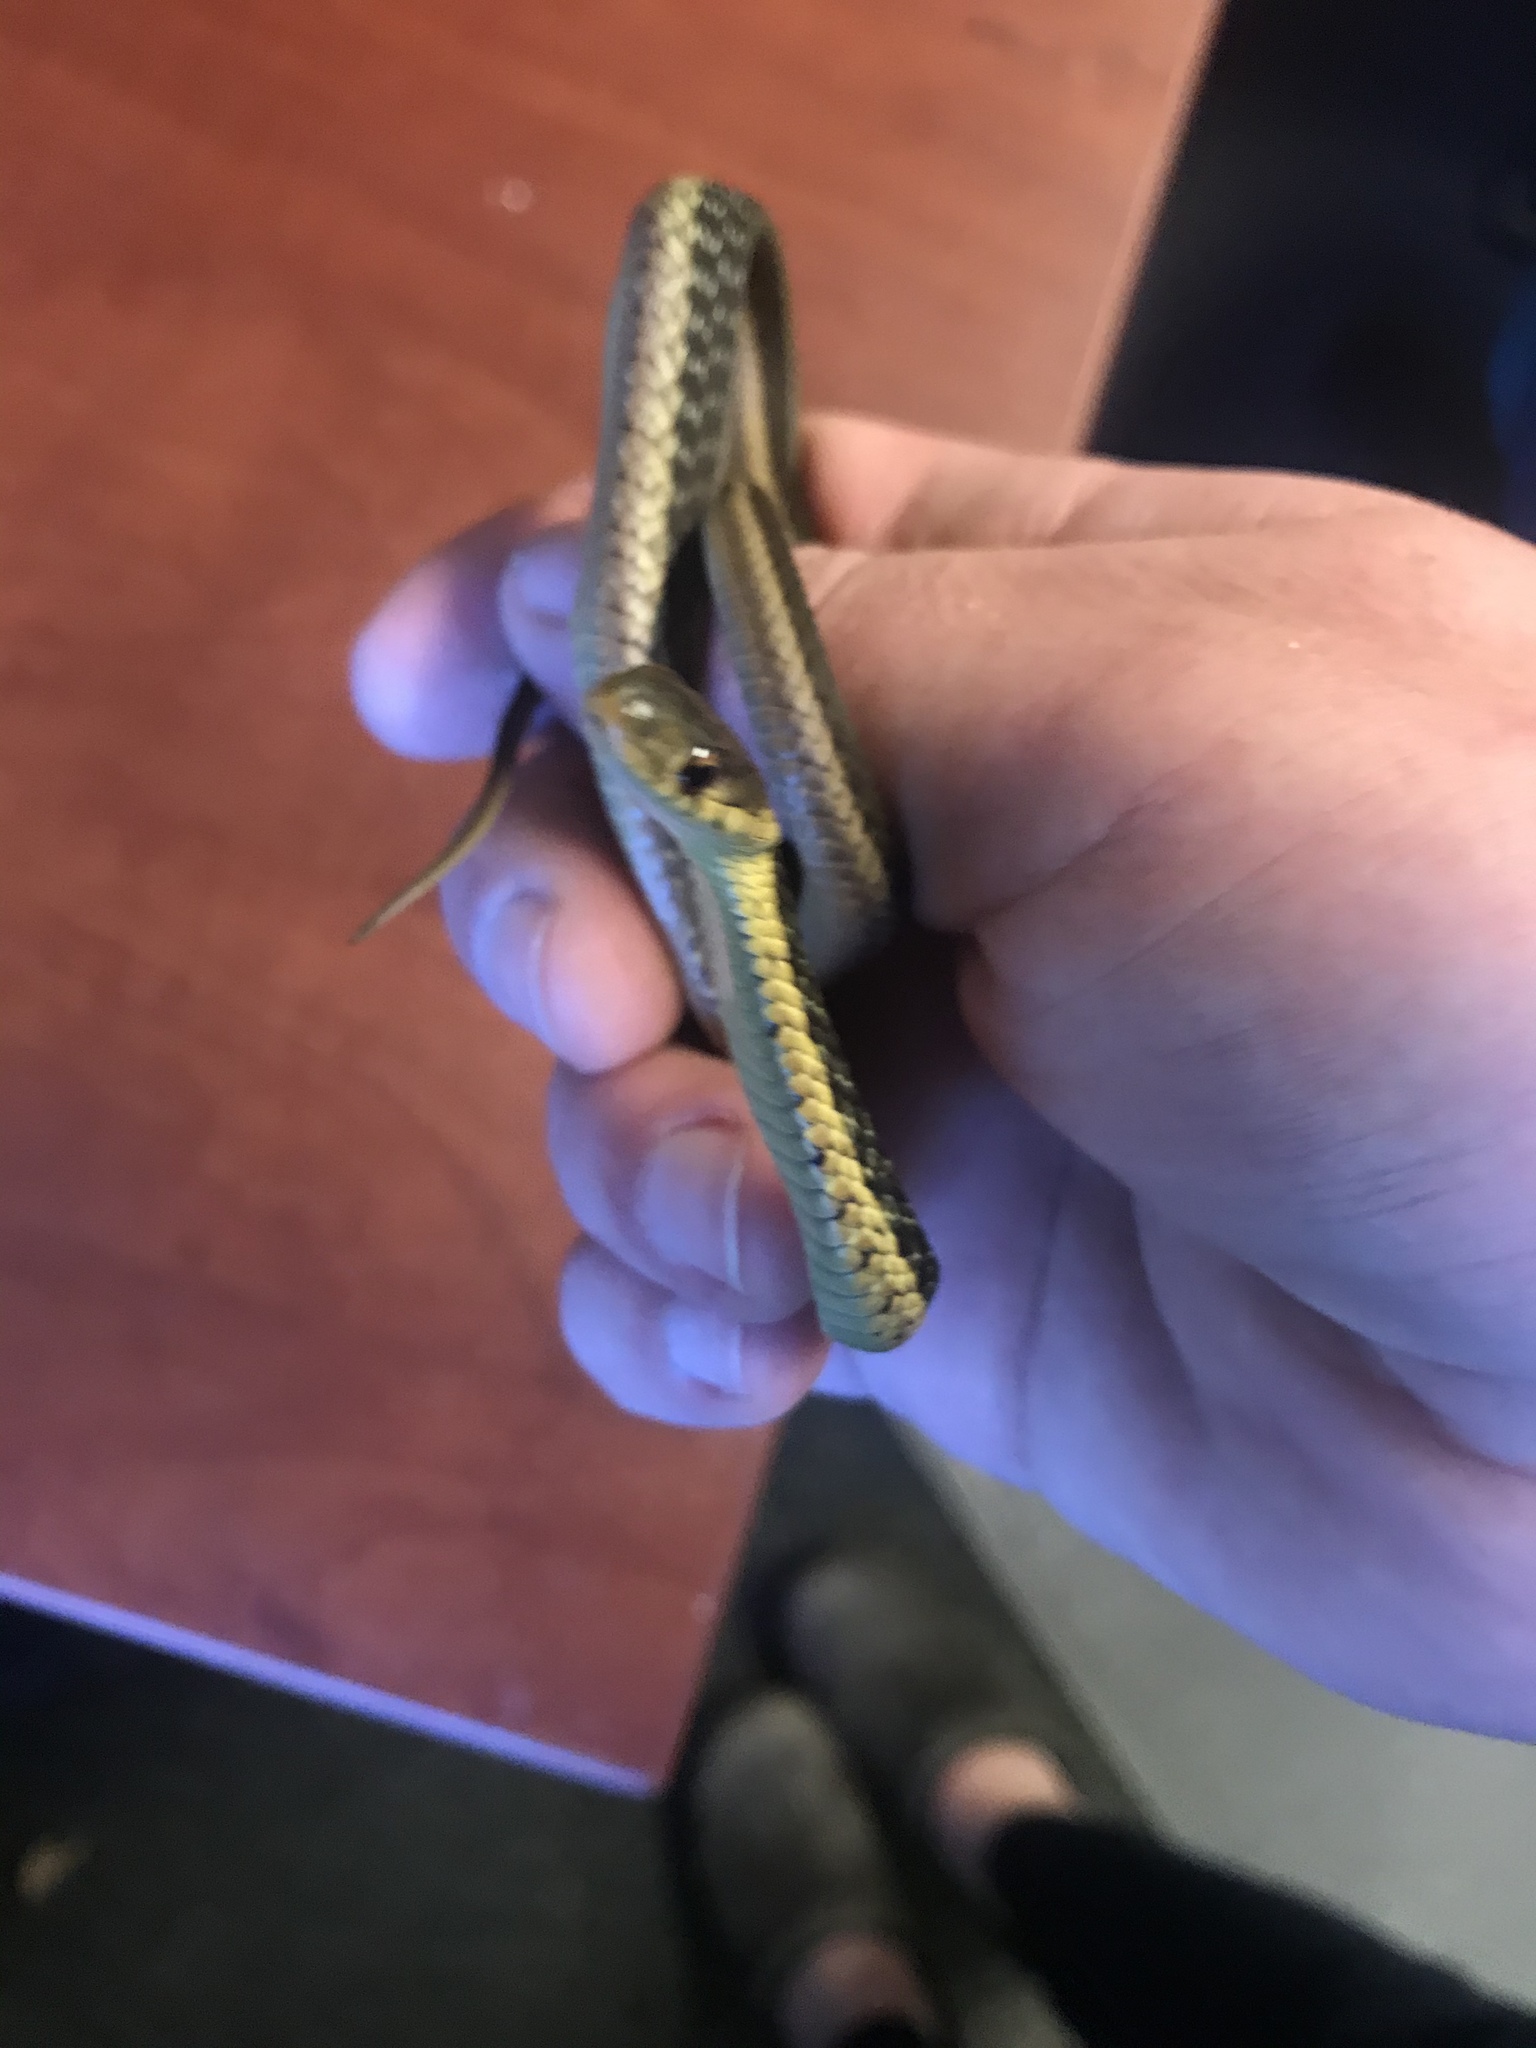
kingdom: Animalia
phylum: Chordata
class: Squamata
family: Colubridae
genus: Thamnophis
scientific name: Thamnophis sirtalis
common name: Common garter snake
